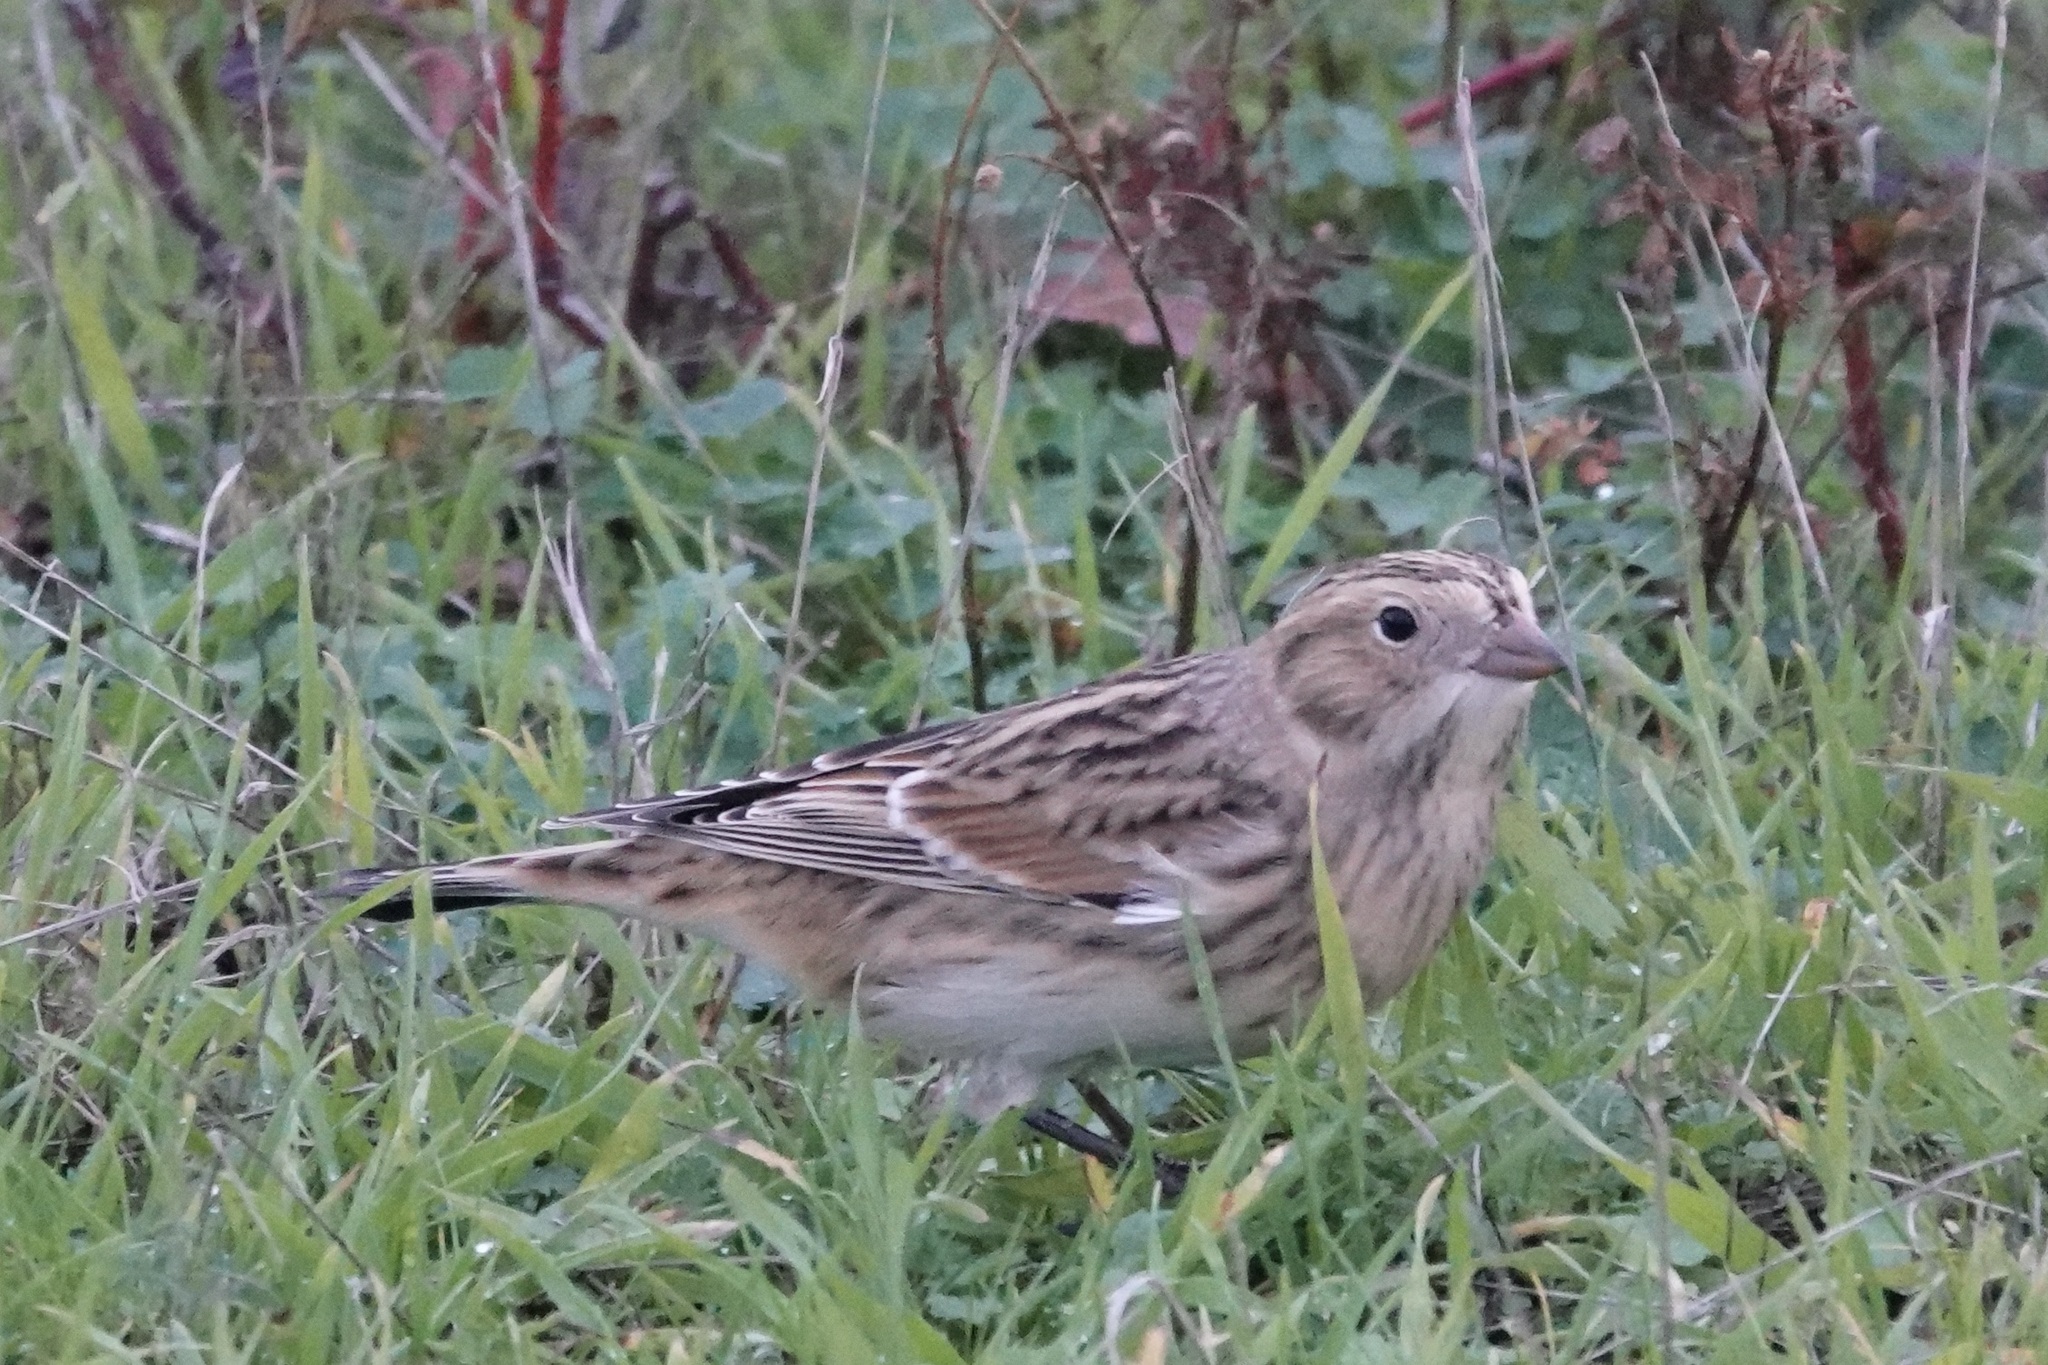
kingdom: Animalia
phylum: Chordata
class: Aves
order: Passeriformes
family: Calcariidae
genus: Calcarius
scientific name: Calcarius lapponicus
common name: Lapland longspur
